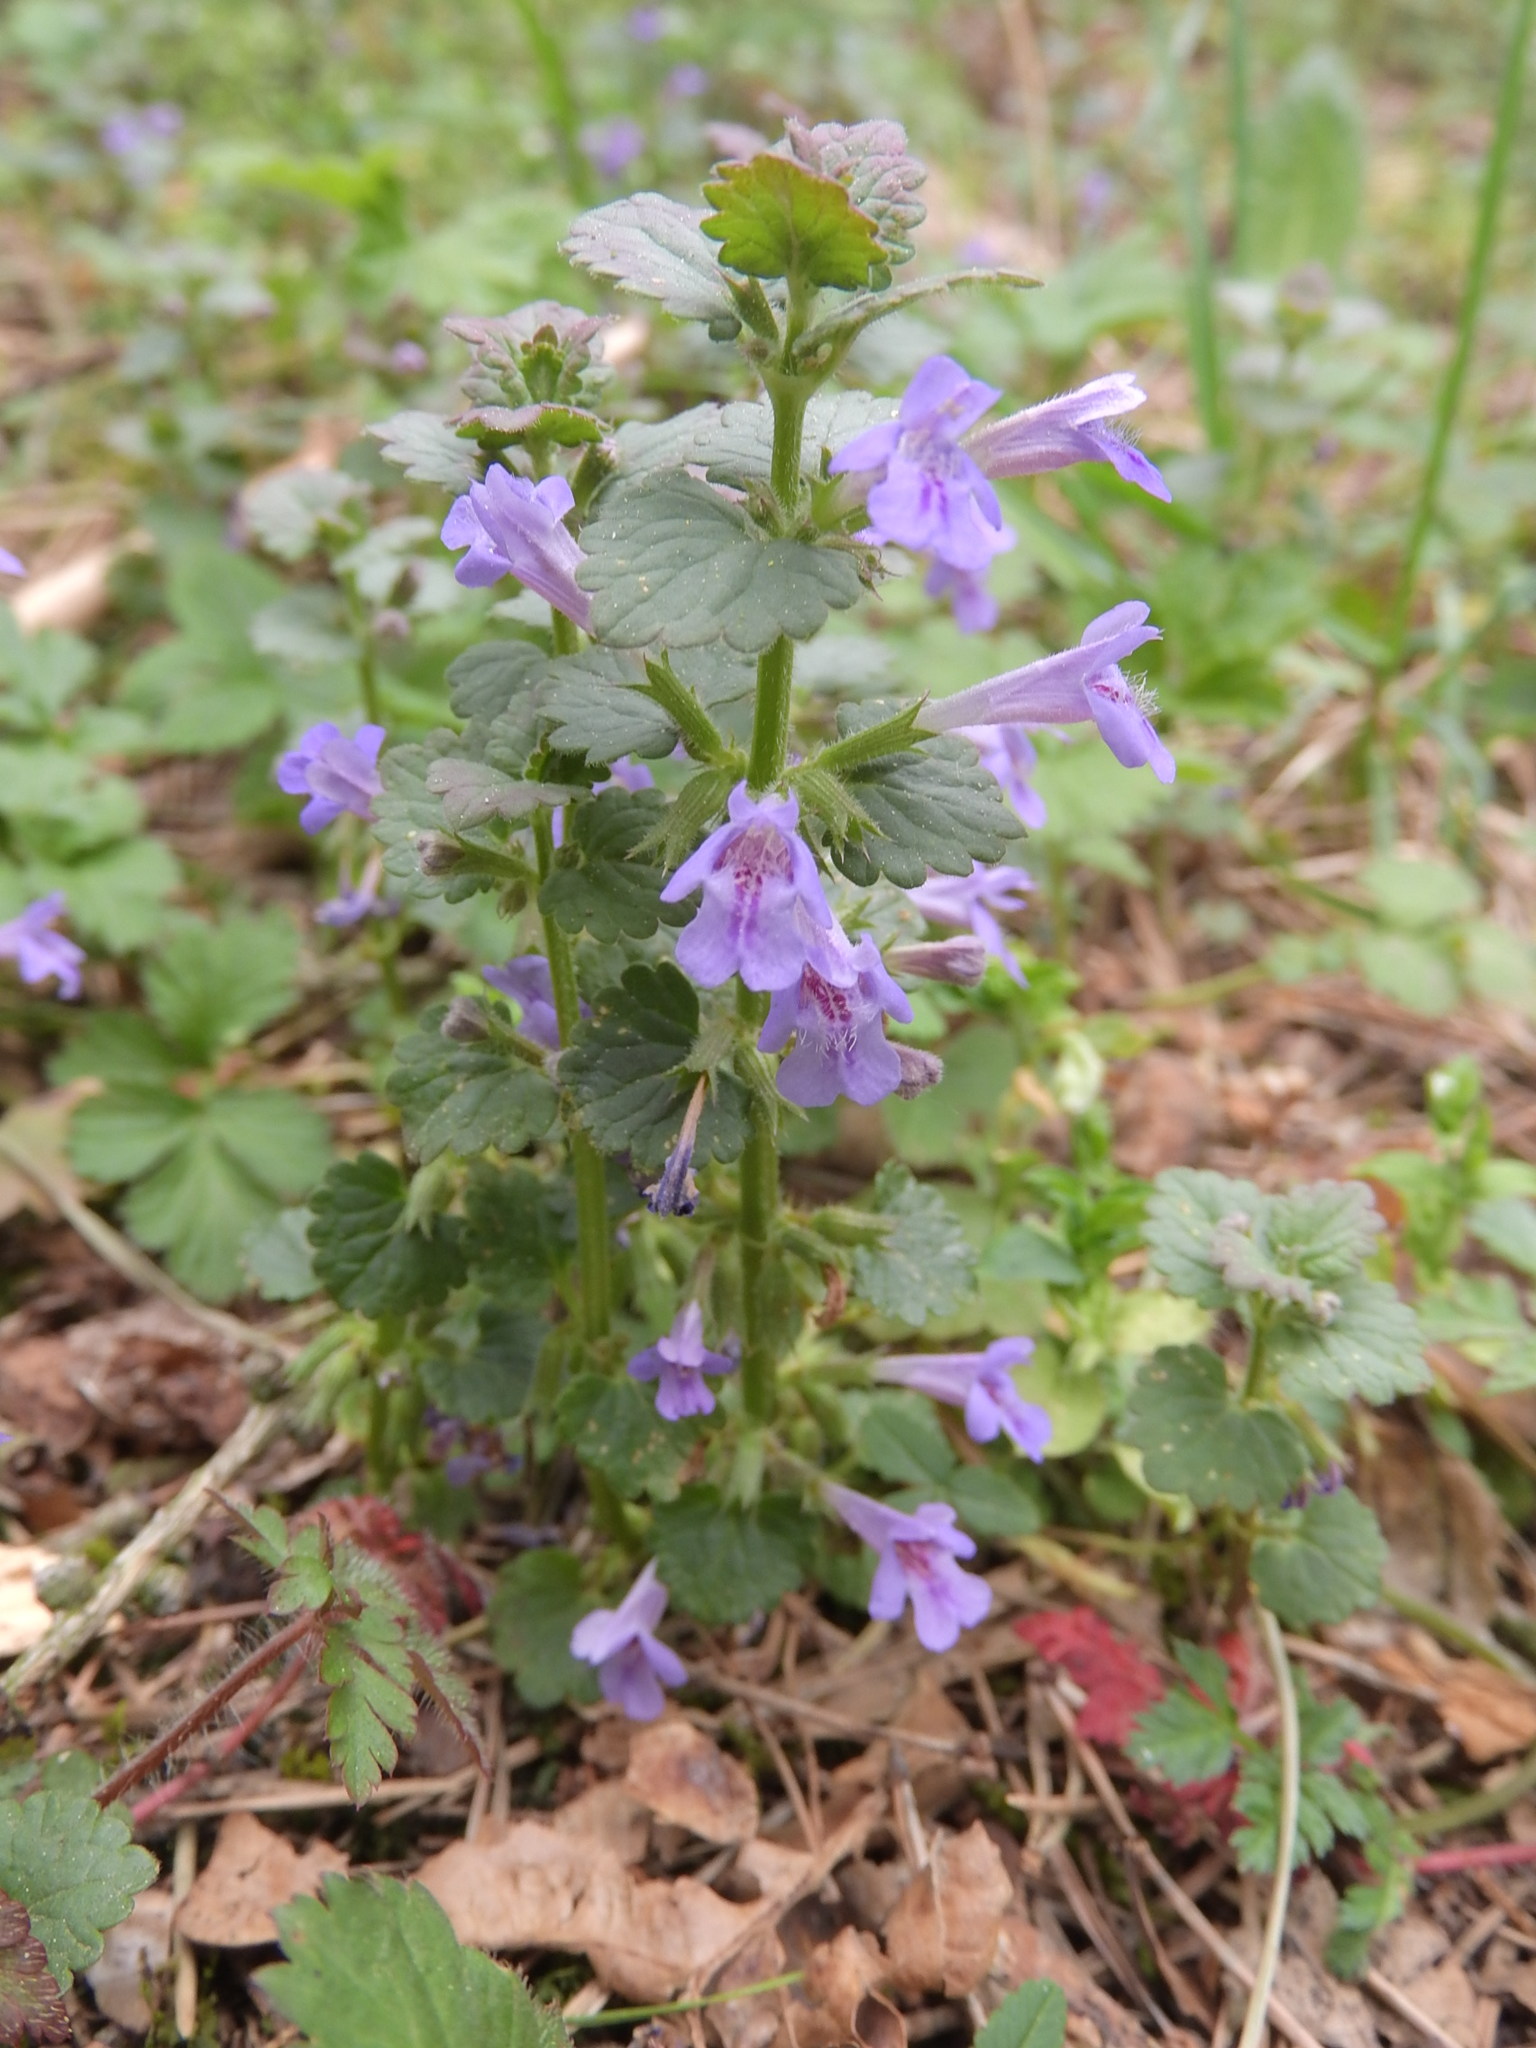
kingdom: Plantae
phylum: Tracheophyta
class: Magnoliopsida
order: Lamiales
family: Lamiaceae
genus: Glechoma
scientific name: Glechoma hederacea
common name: Ground ivy
